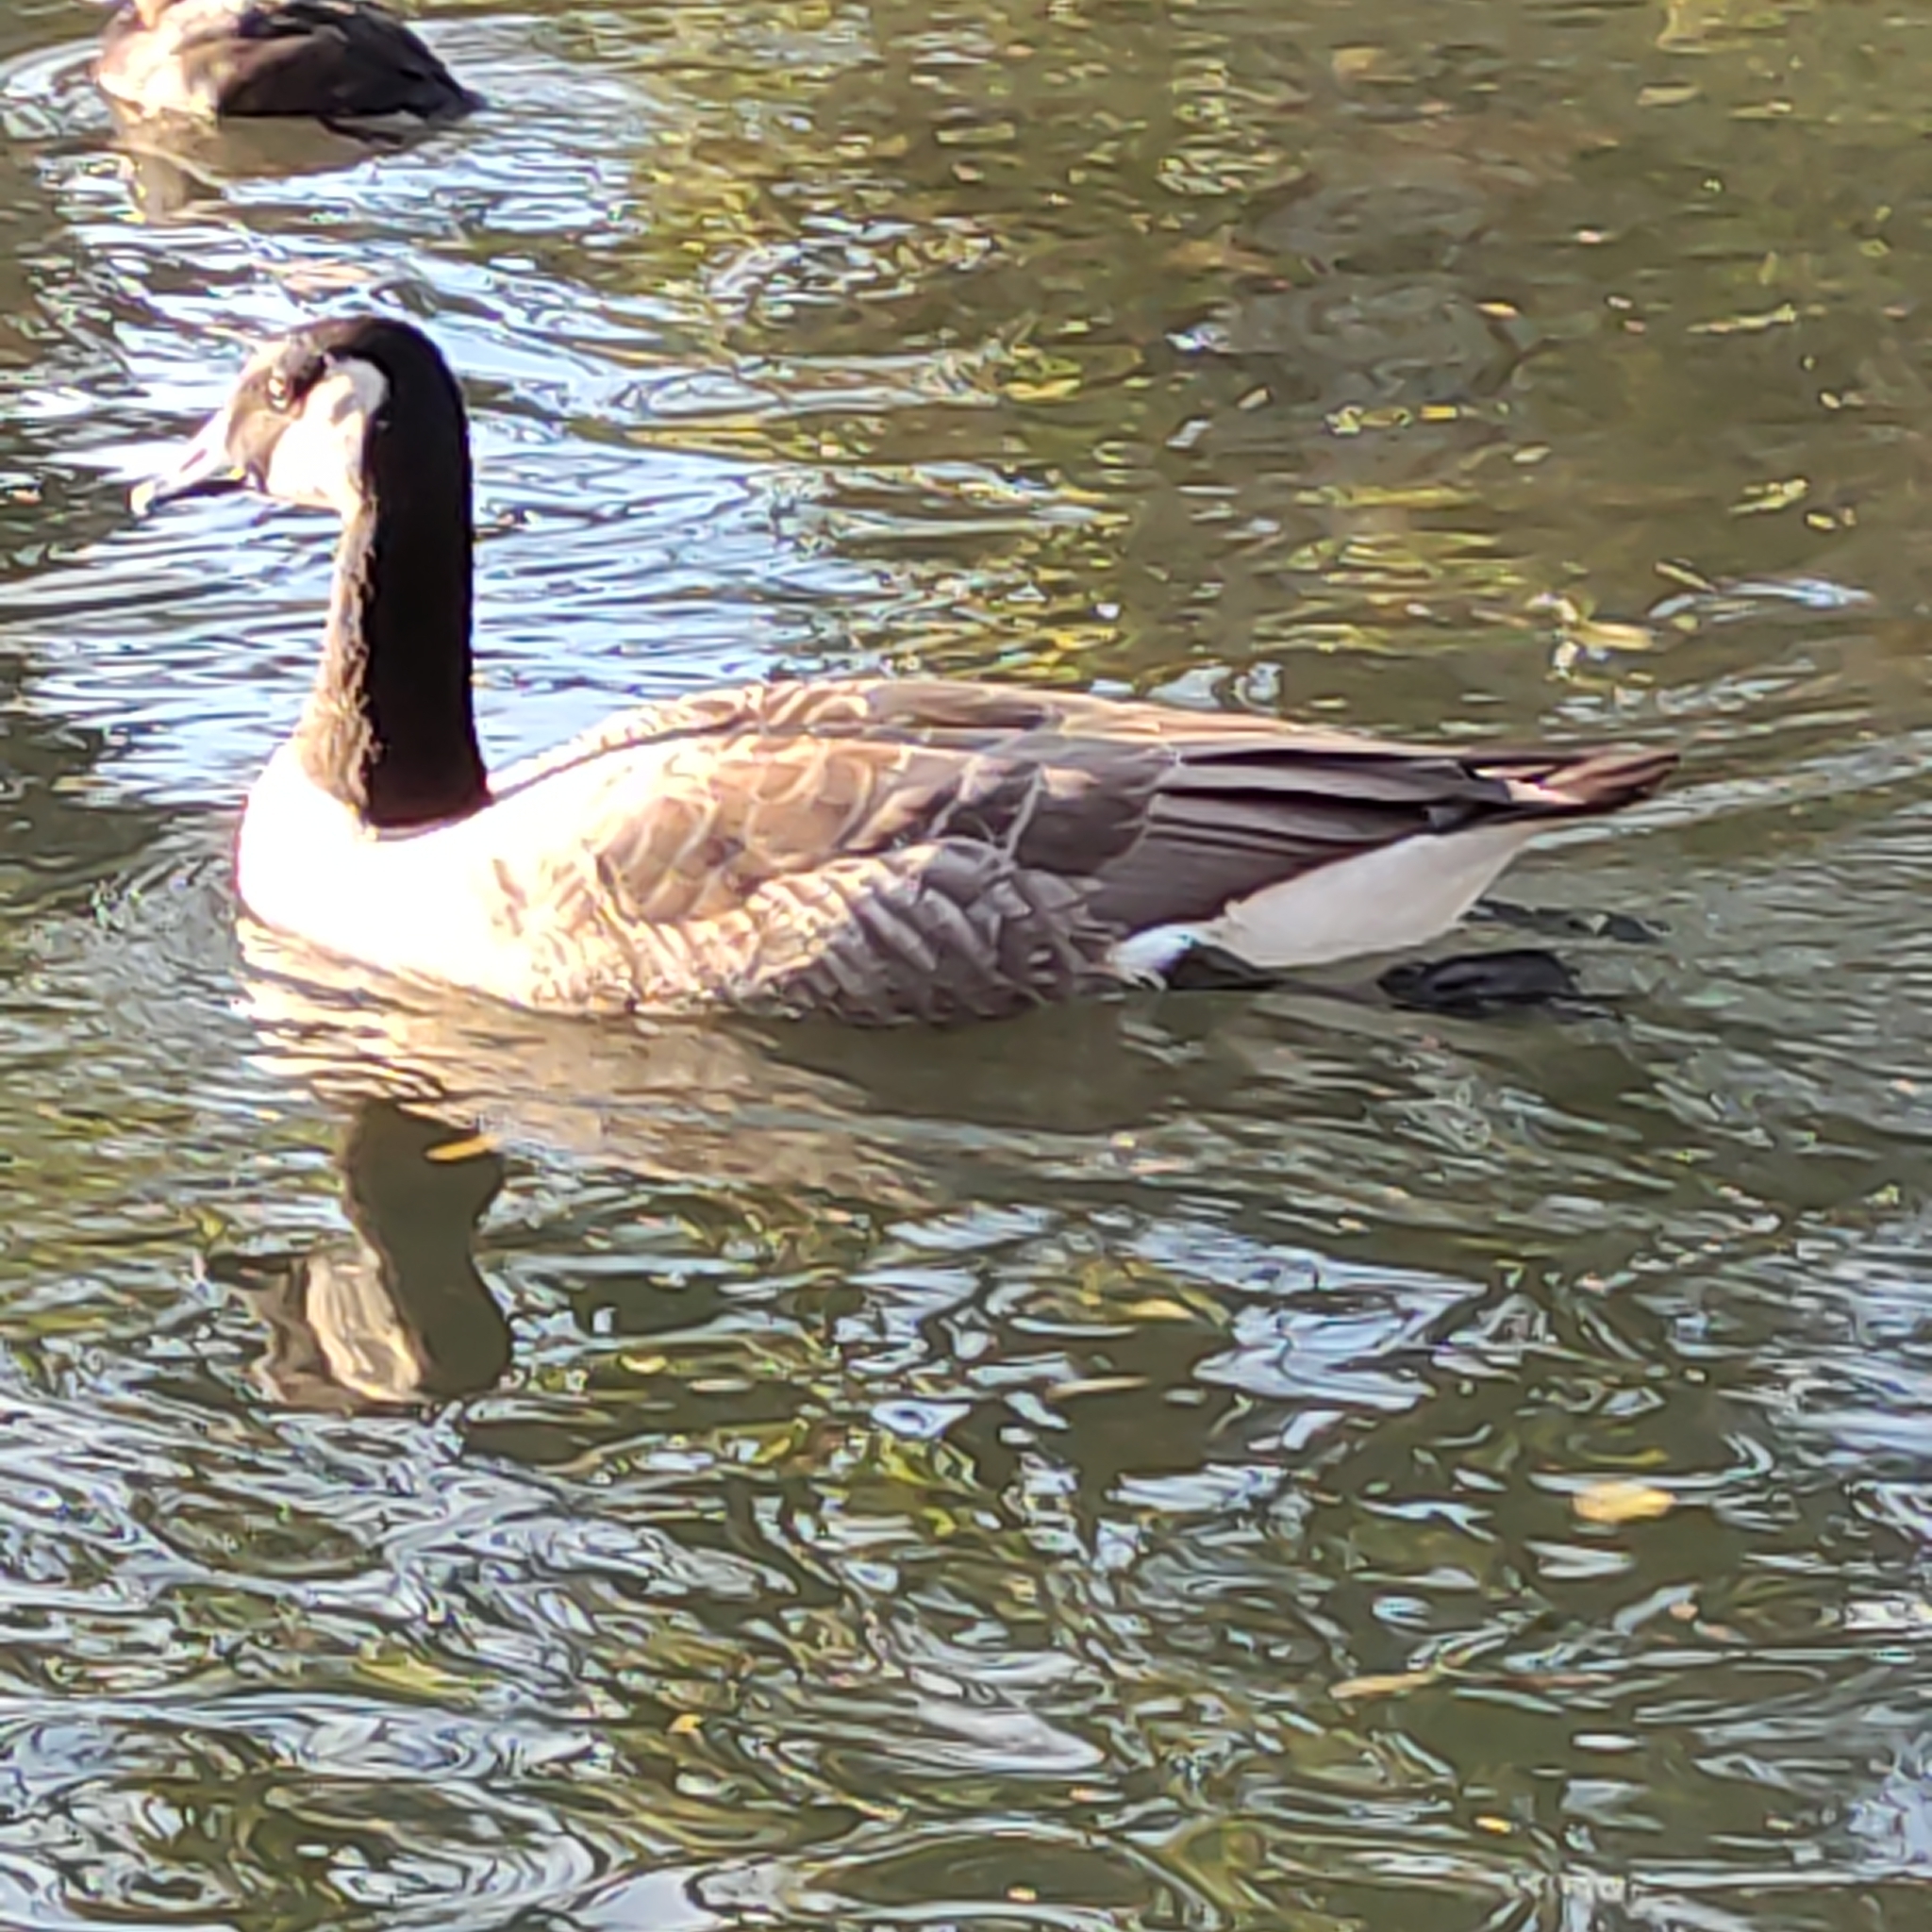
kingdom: Animalia
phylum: Chordata
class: Aves
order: Anseriformes
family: Anatidae
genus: Branta
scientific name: Branta canadensis
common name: Canada goose
